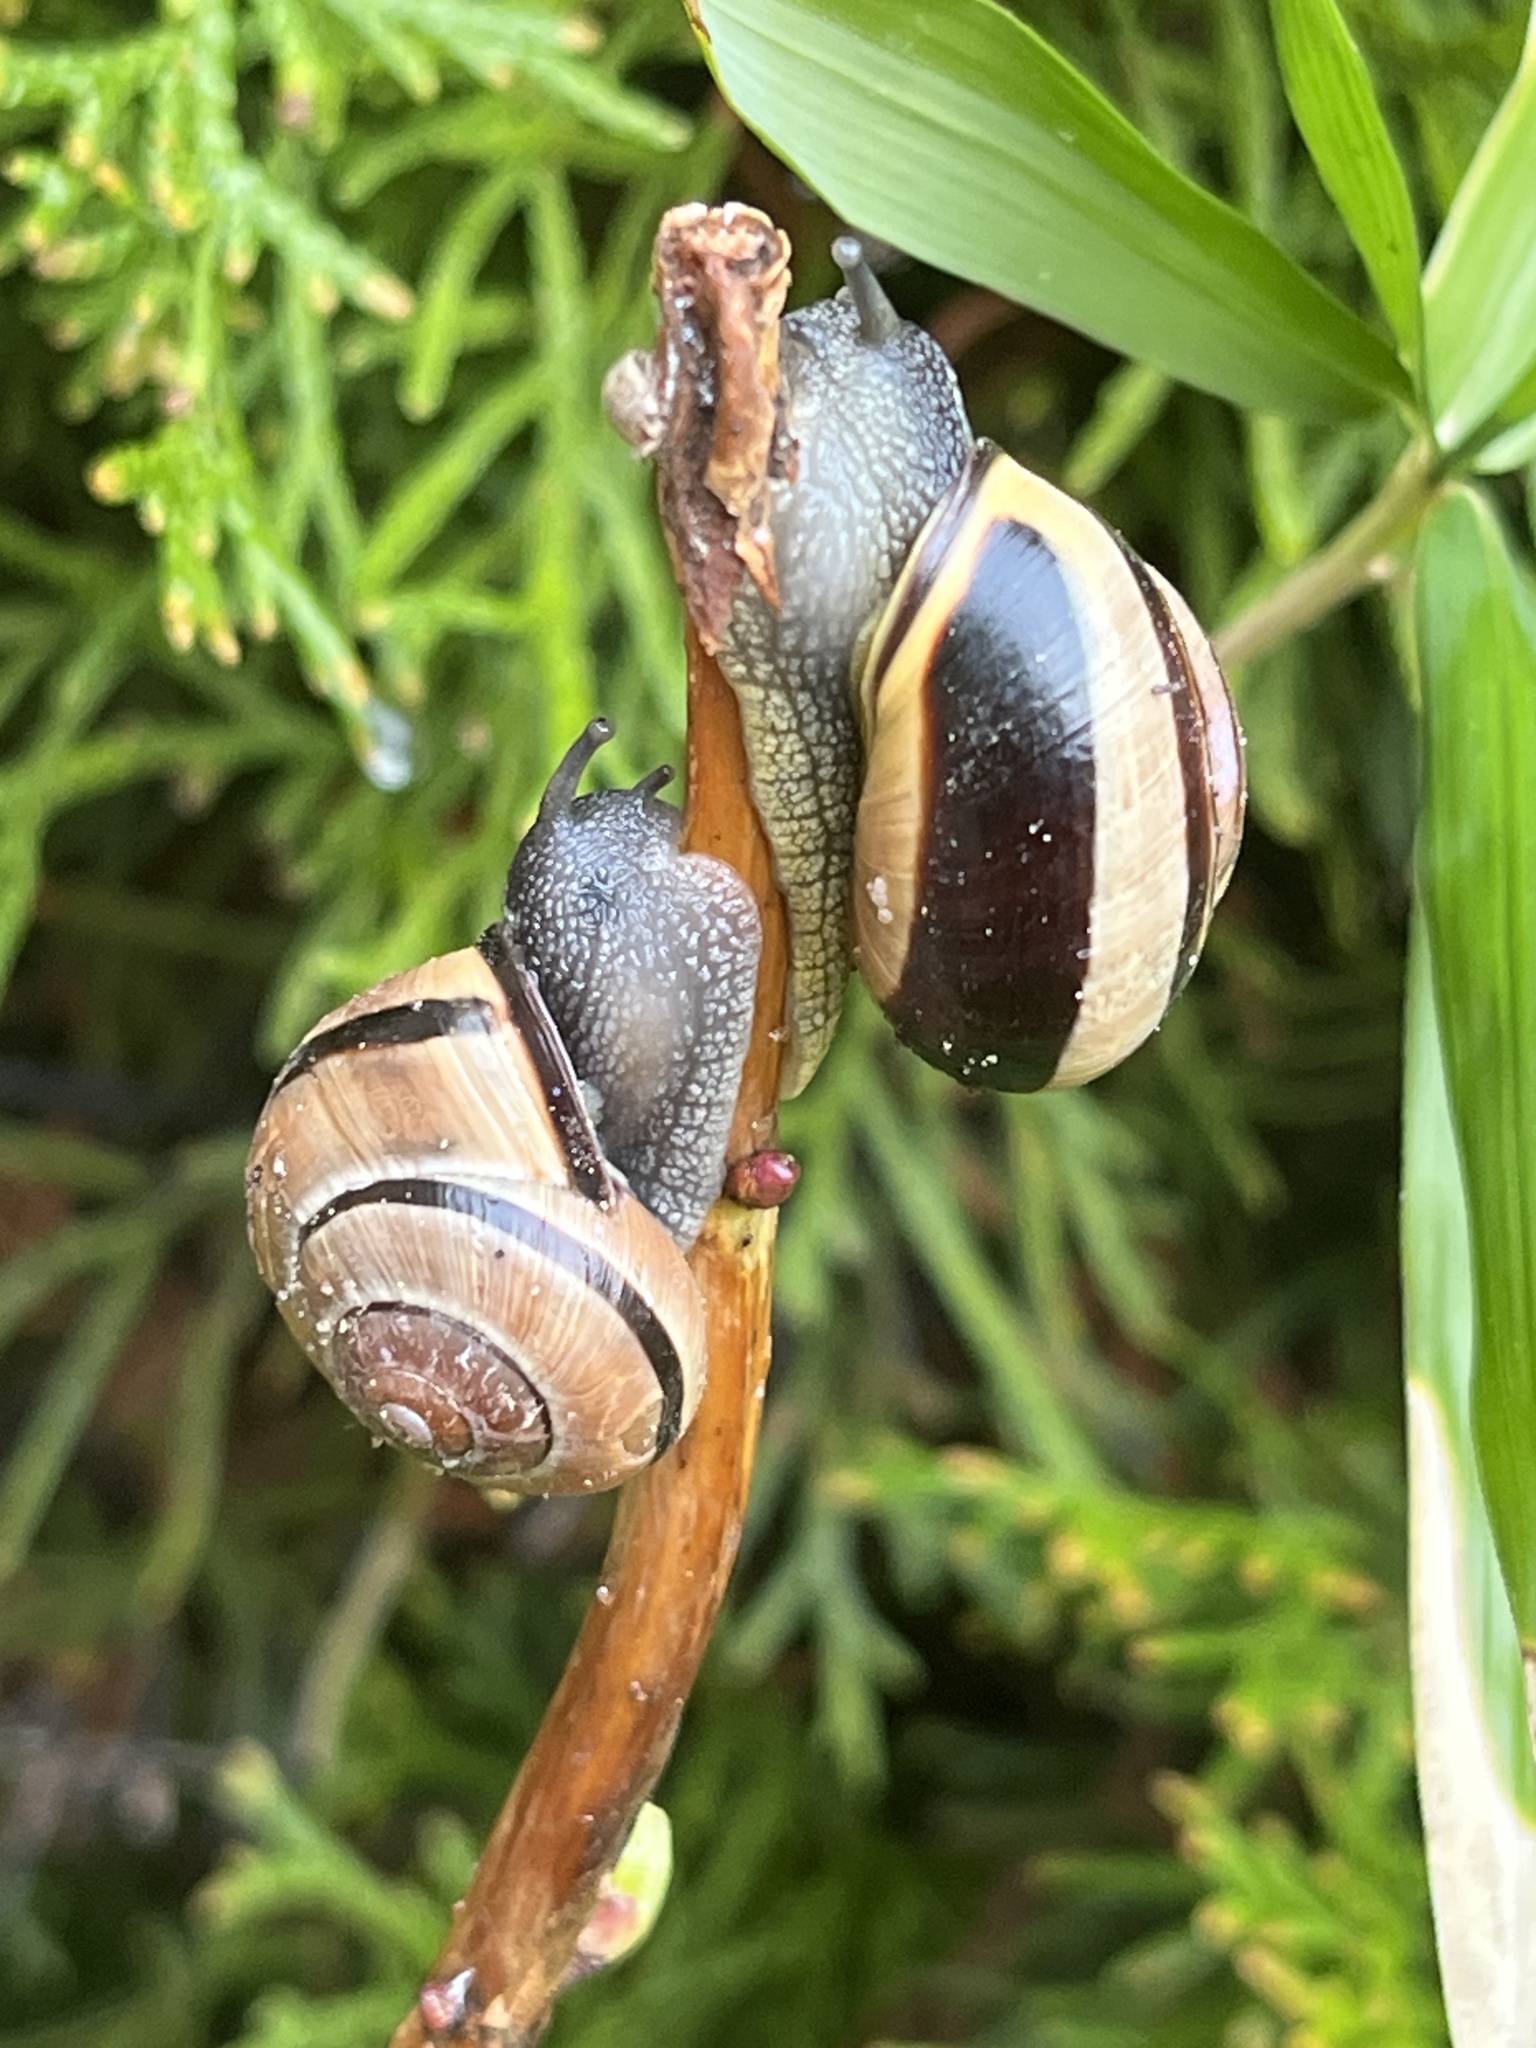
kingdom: Animalia
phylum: Mollusca
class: Gastropoda
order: Stylommatophora
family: Helicidae
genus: Cepaea
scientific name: Cepaea nemoralis
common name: Grovesnail
